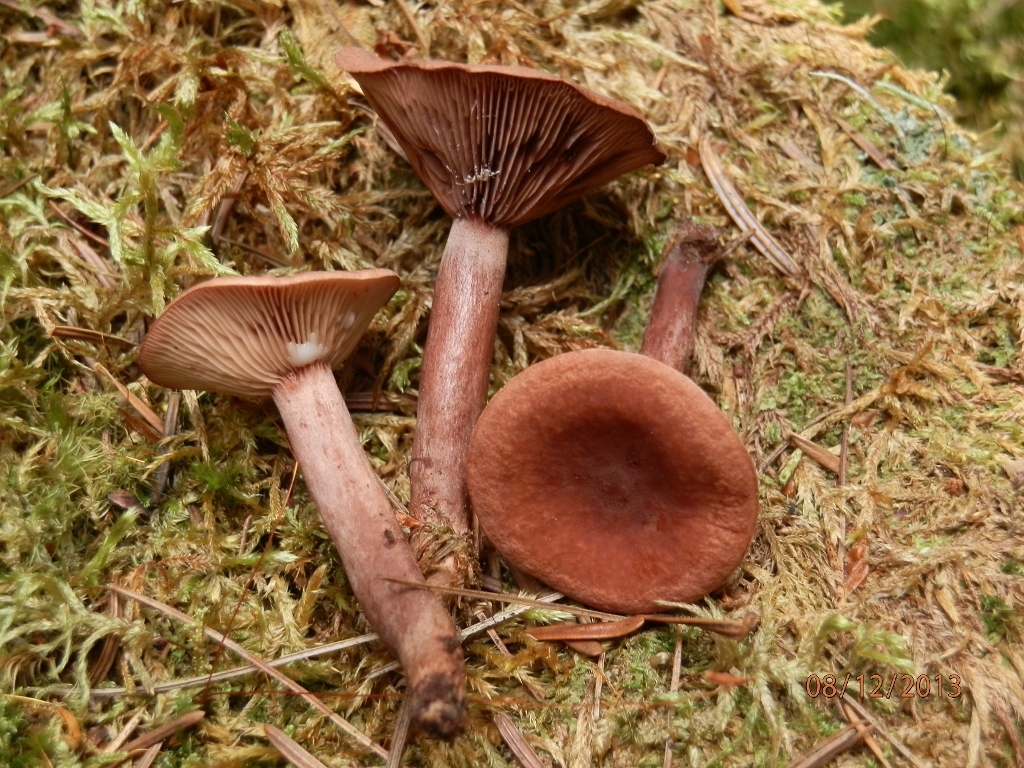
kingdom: Fungi
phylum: Basidiomycota
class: Agaricomycetes
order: Russulales
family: Russulaceae
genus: Lactarius
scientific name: Lactarius camphoratus
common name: Curry milkcap
